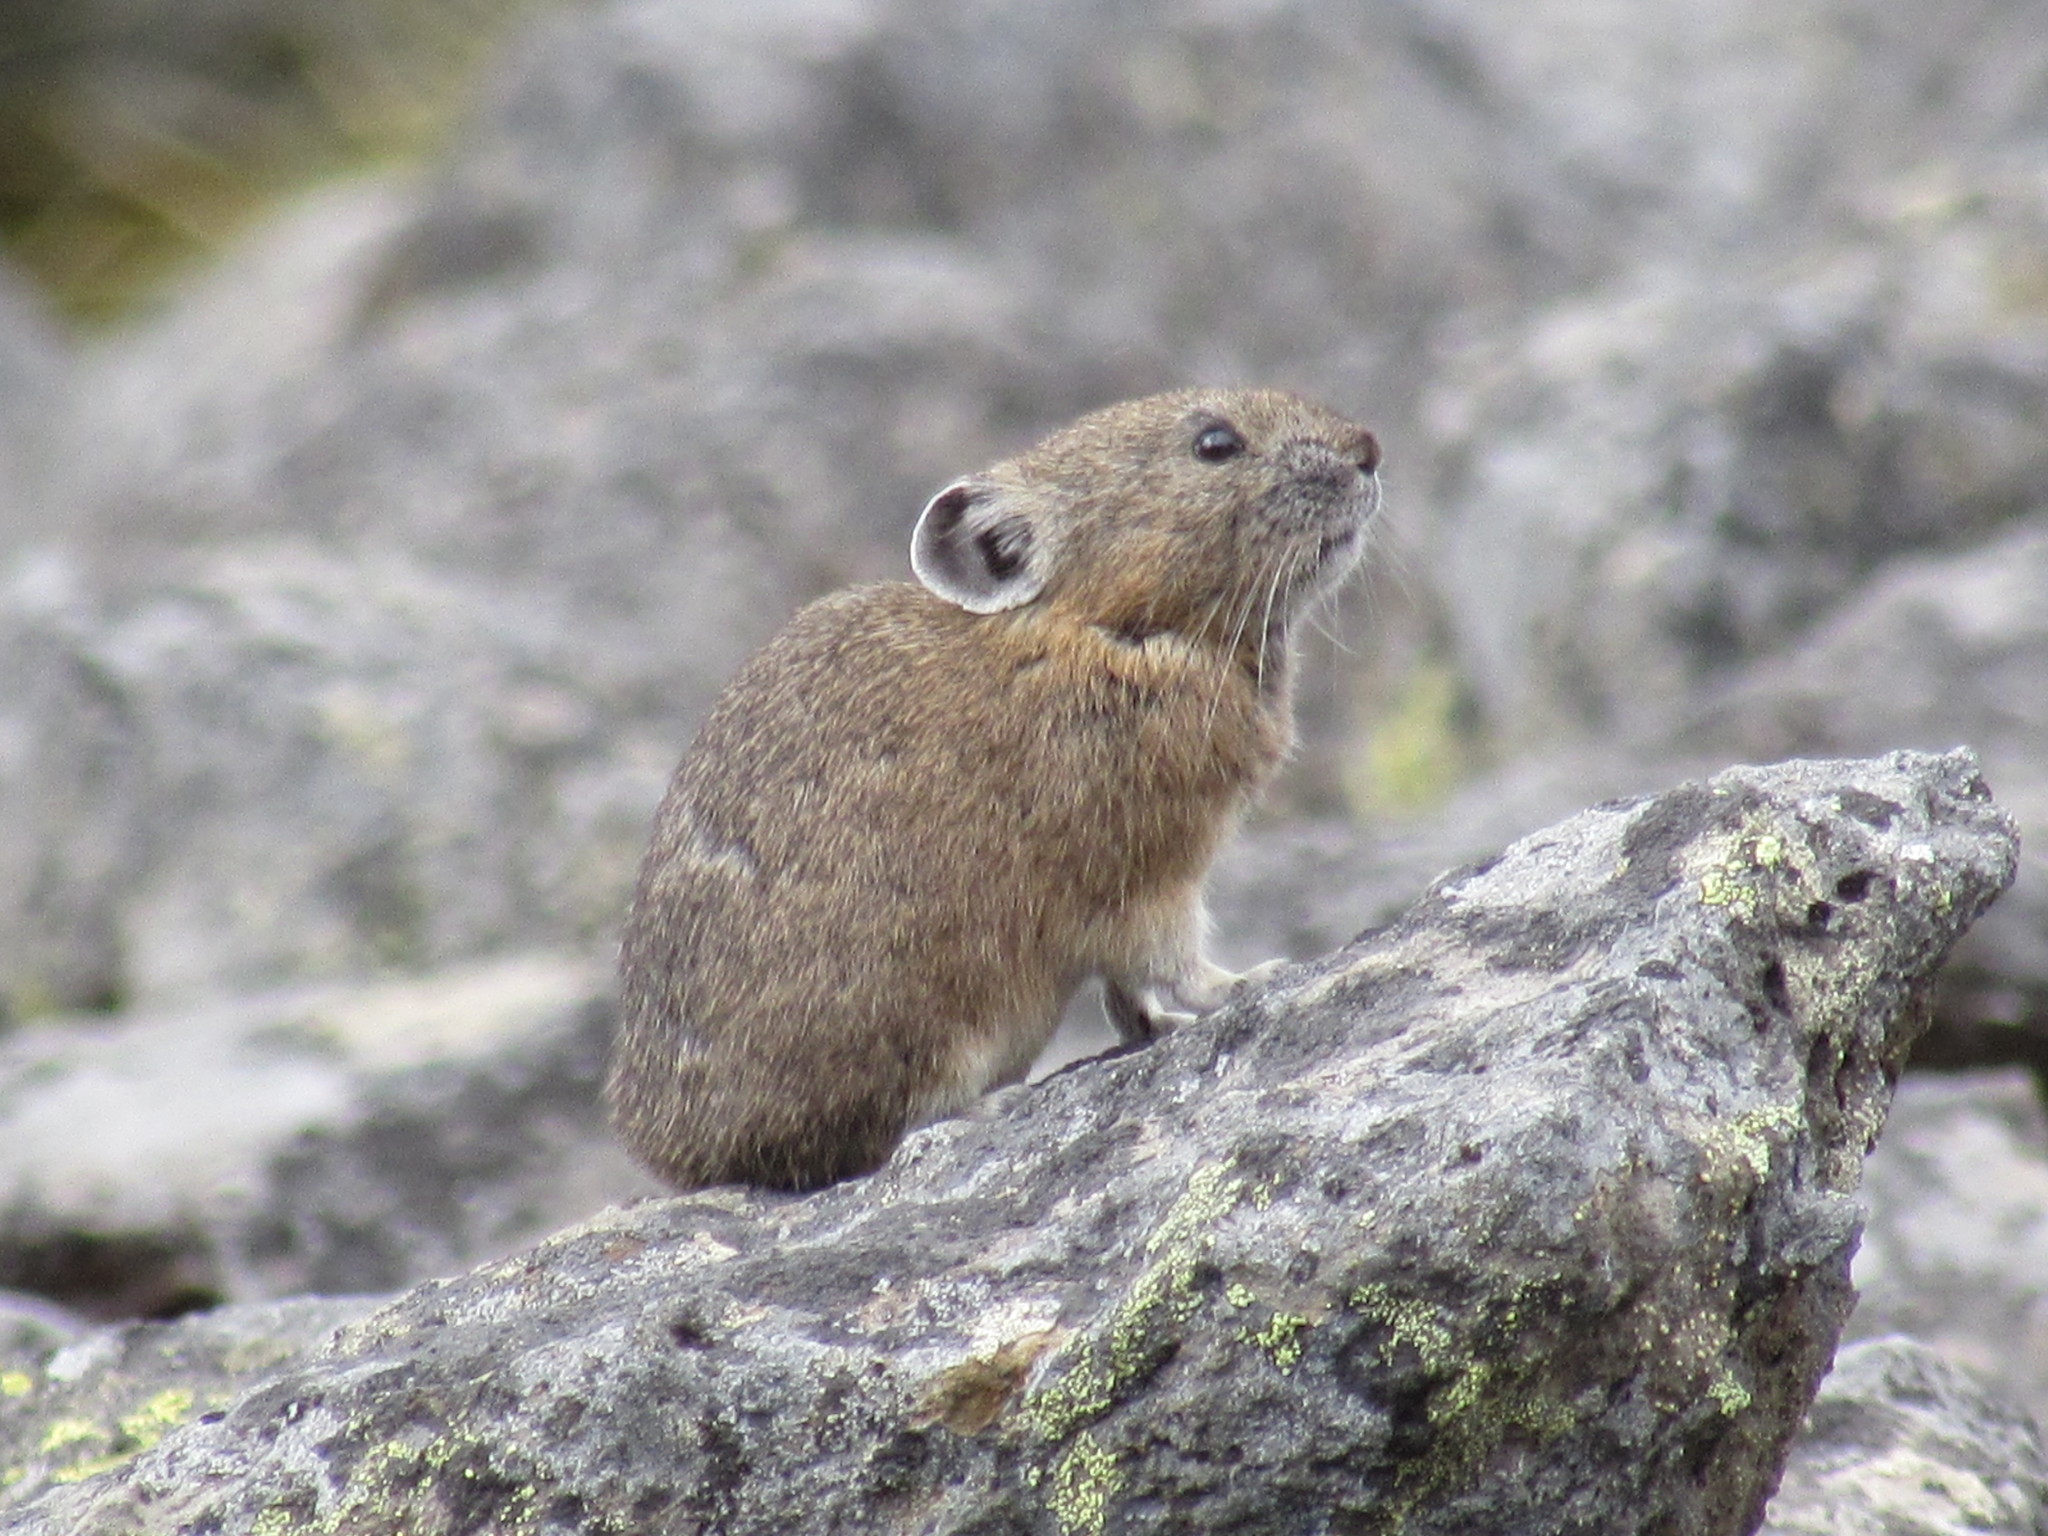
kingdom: Animalia
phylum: Chordata
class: Mammalia
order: Lagomorpha
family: Ochotonidae
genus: Ochotona
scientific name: Ochotona princeps
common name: American pika
